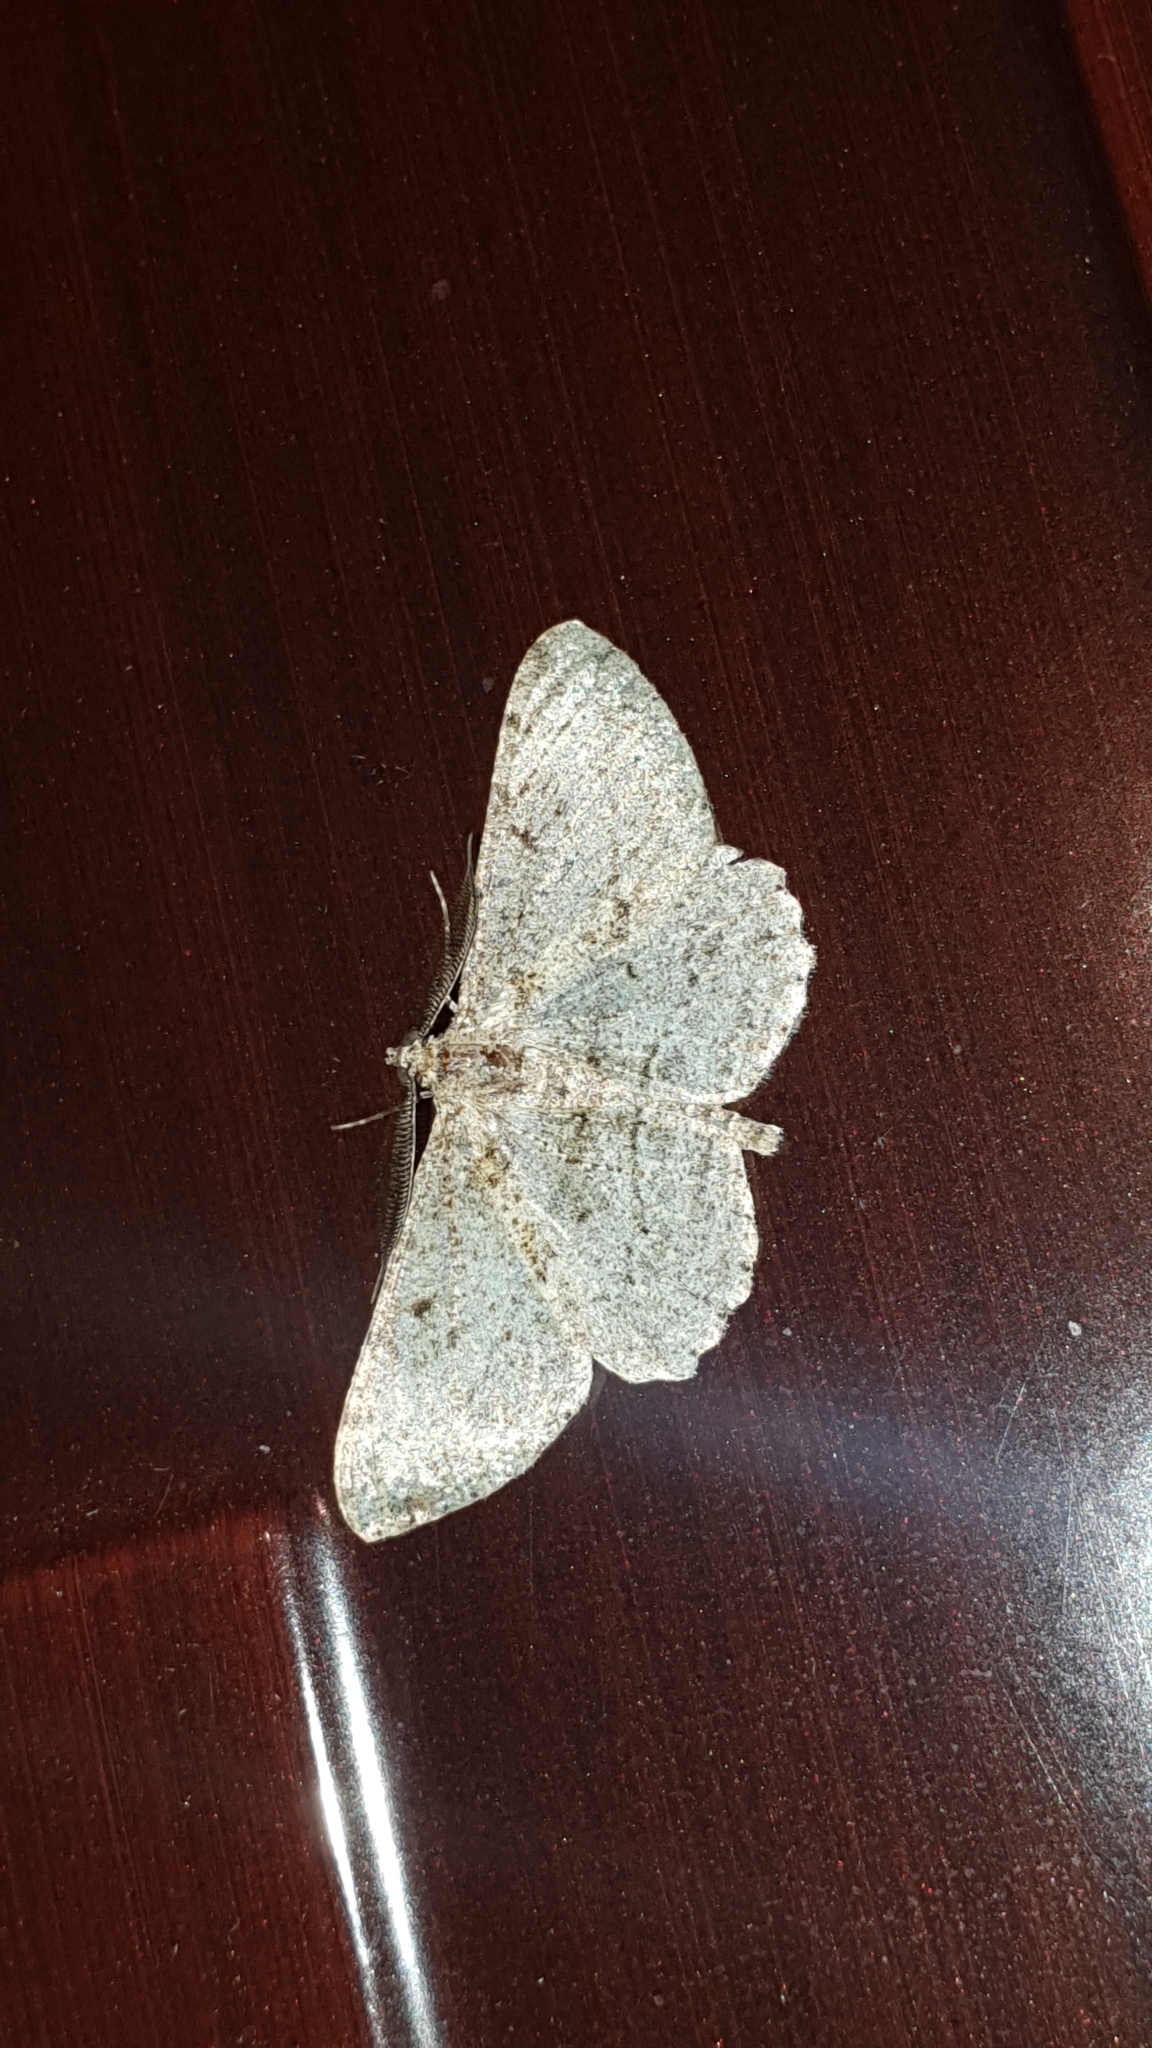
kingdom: Animalia
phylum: Arthropoda
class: Insecta
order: Lepidoptera
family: Geometridae
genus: Peribatodes
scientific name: Peribatodes rhomboidaria
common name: Willow beauty
